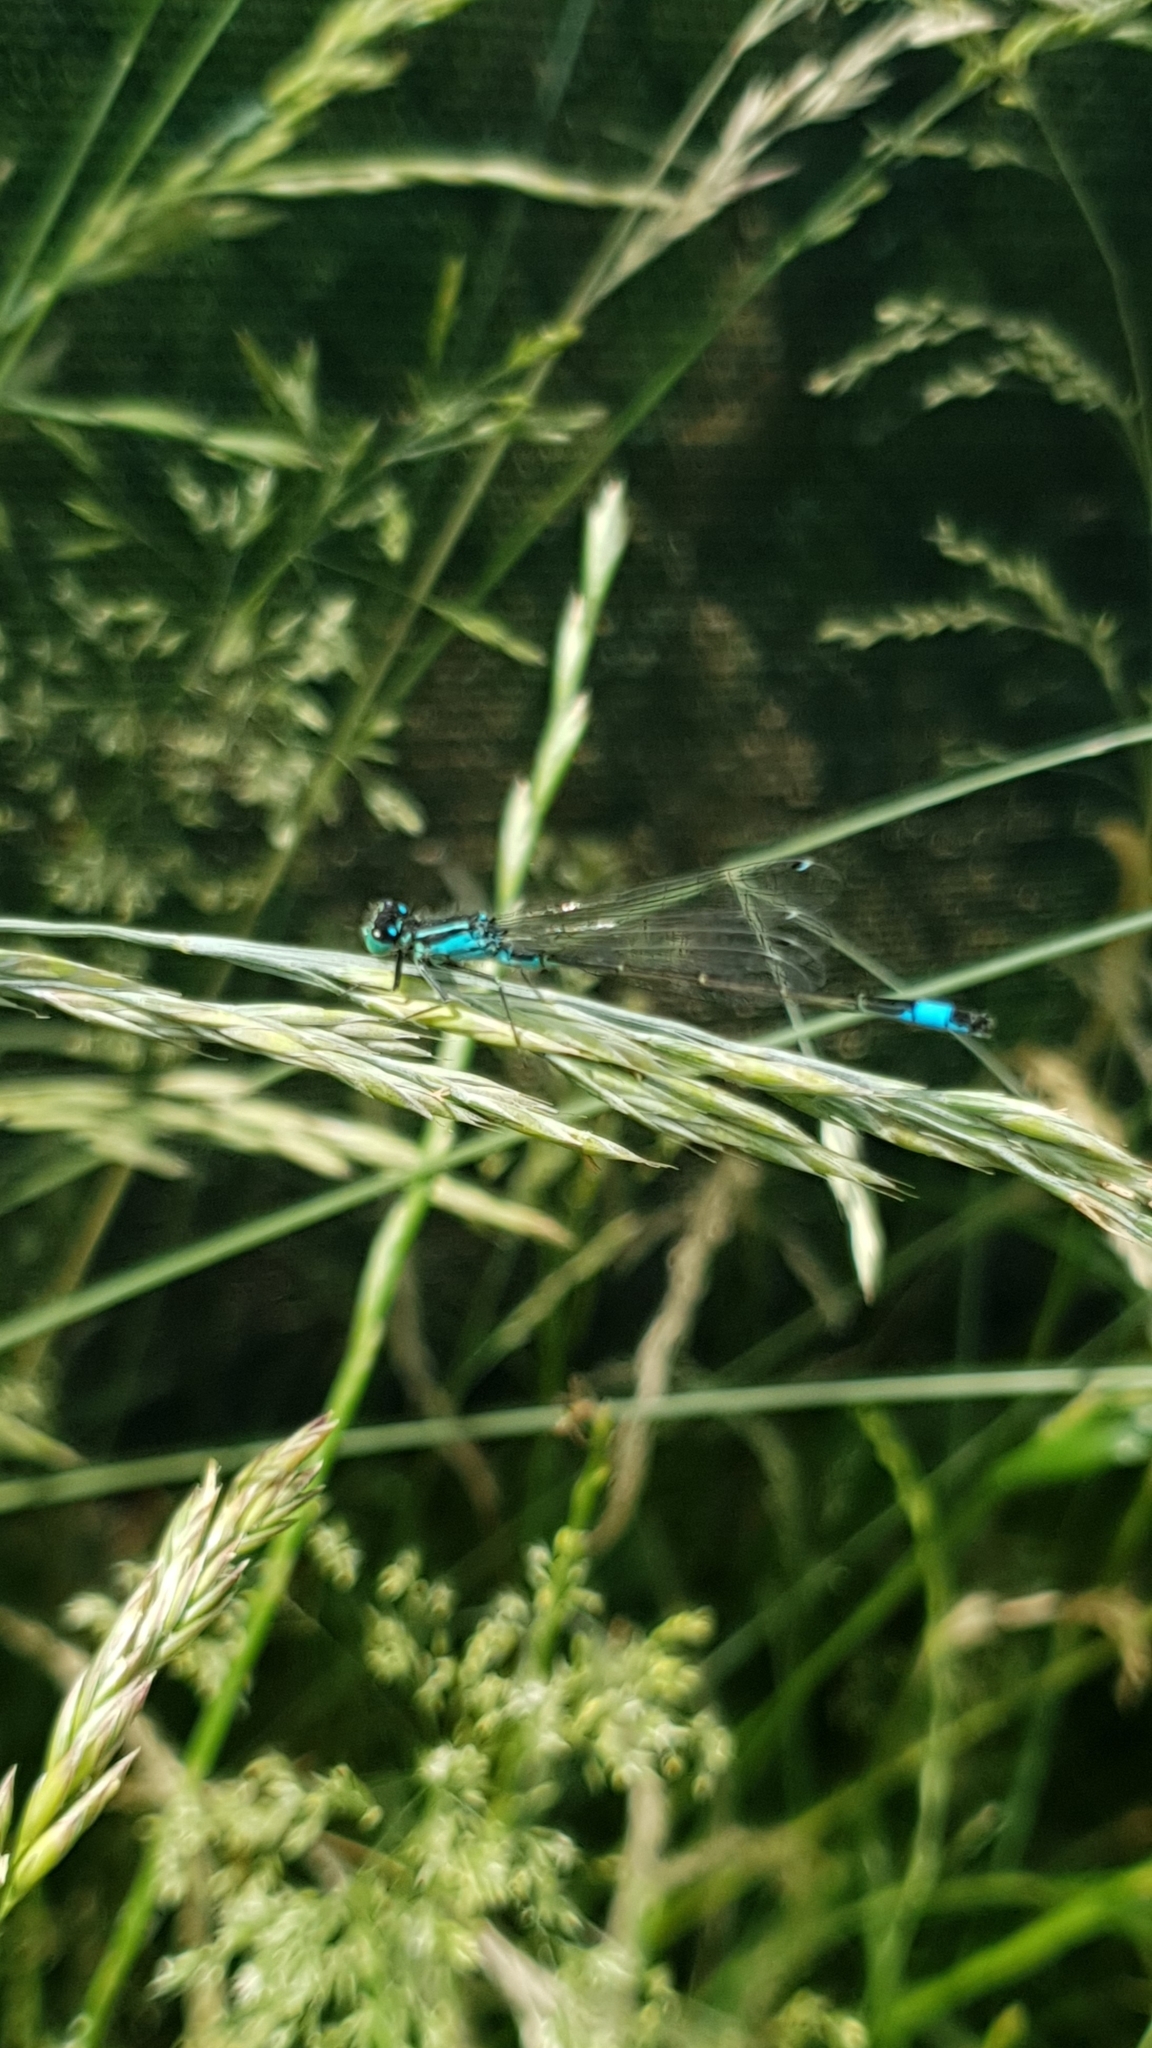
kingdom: Animalia
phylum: Arthropoda
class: Insecta
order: Odonata
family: Coenagrionidae
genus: Ischnura
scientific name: Ischnura elegans
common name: Blue-tailed damselfly
